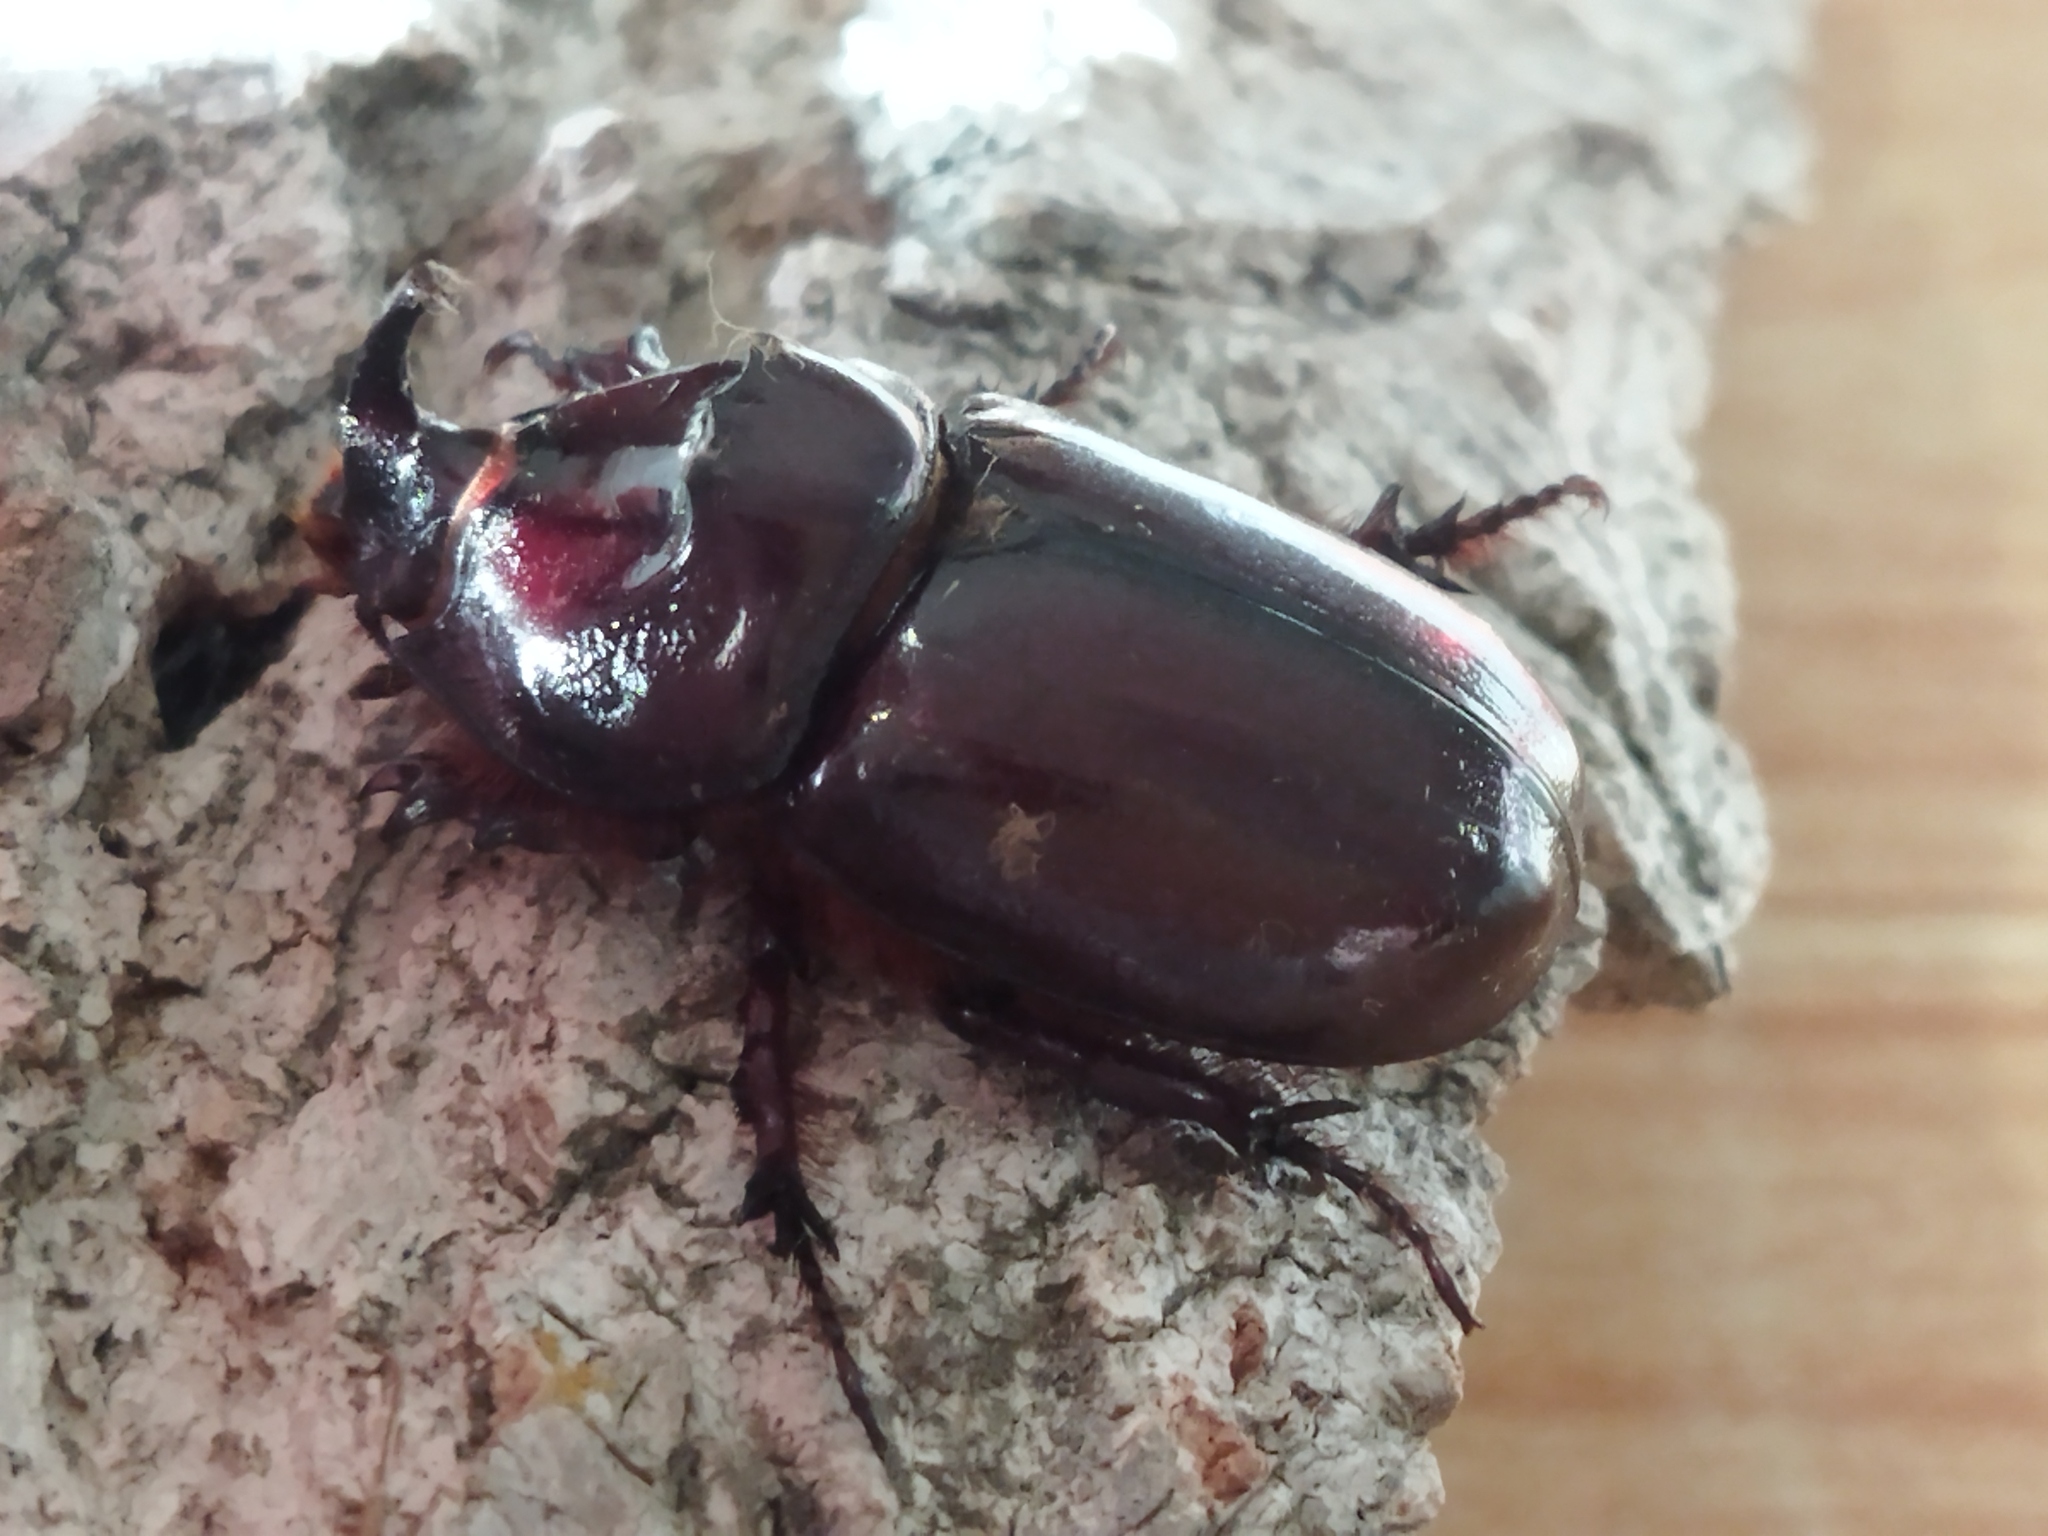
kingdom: Animalia
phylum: Arthropoda
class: Insecta
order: Coleoptera
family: Scarabaeidae
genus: Oryctes
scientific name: Oryctes nasicornis
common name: European rhinoceros beetle
